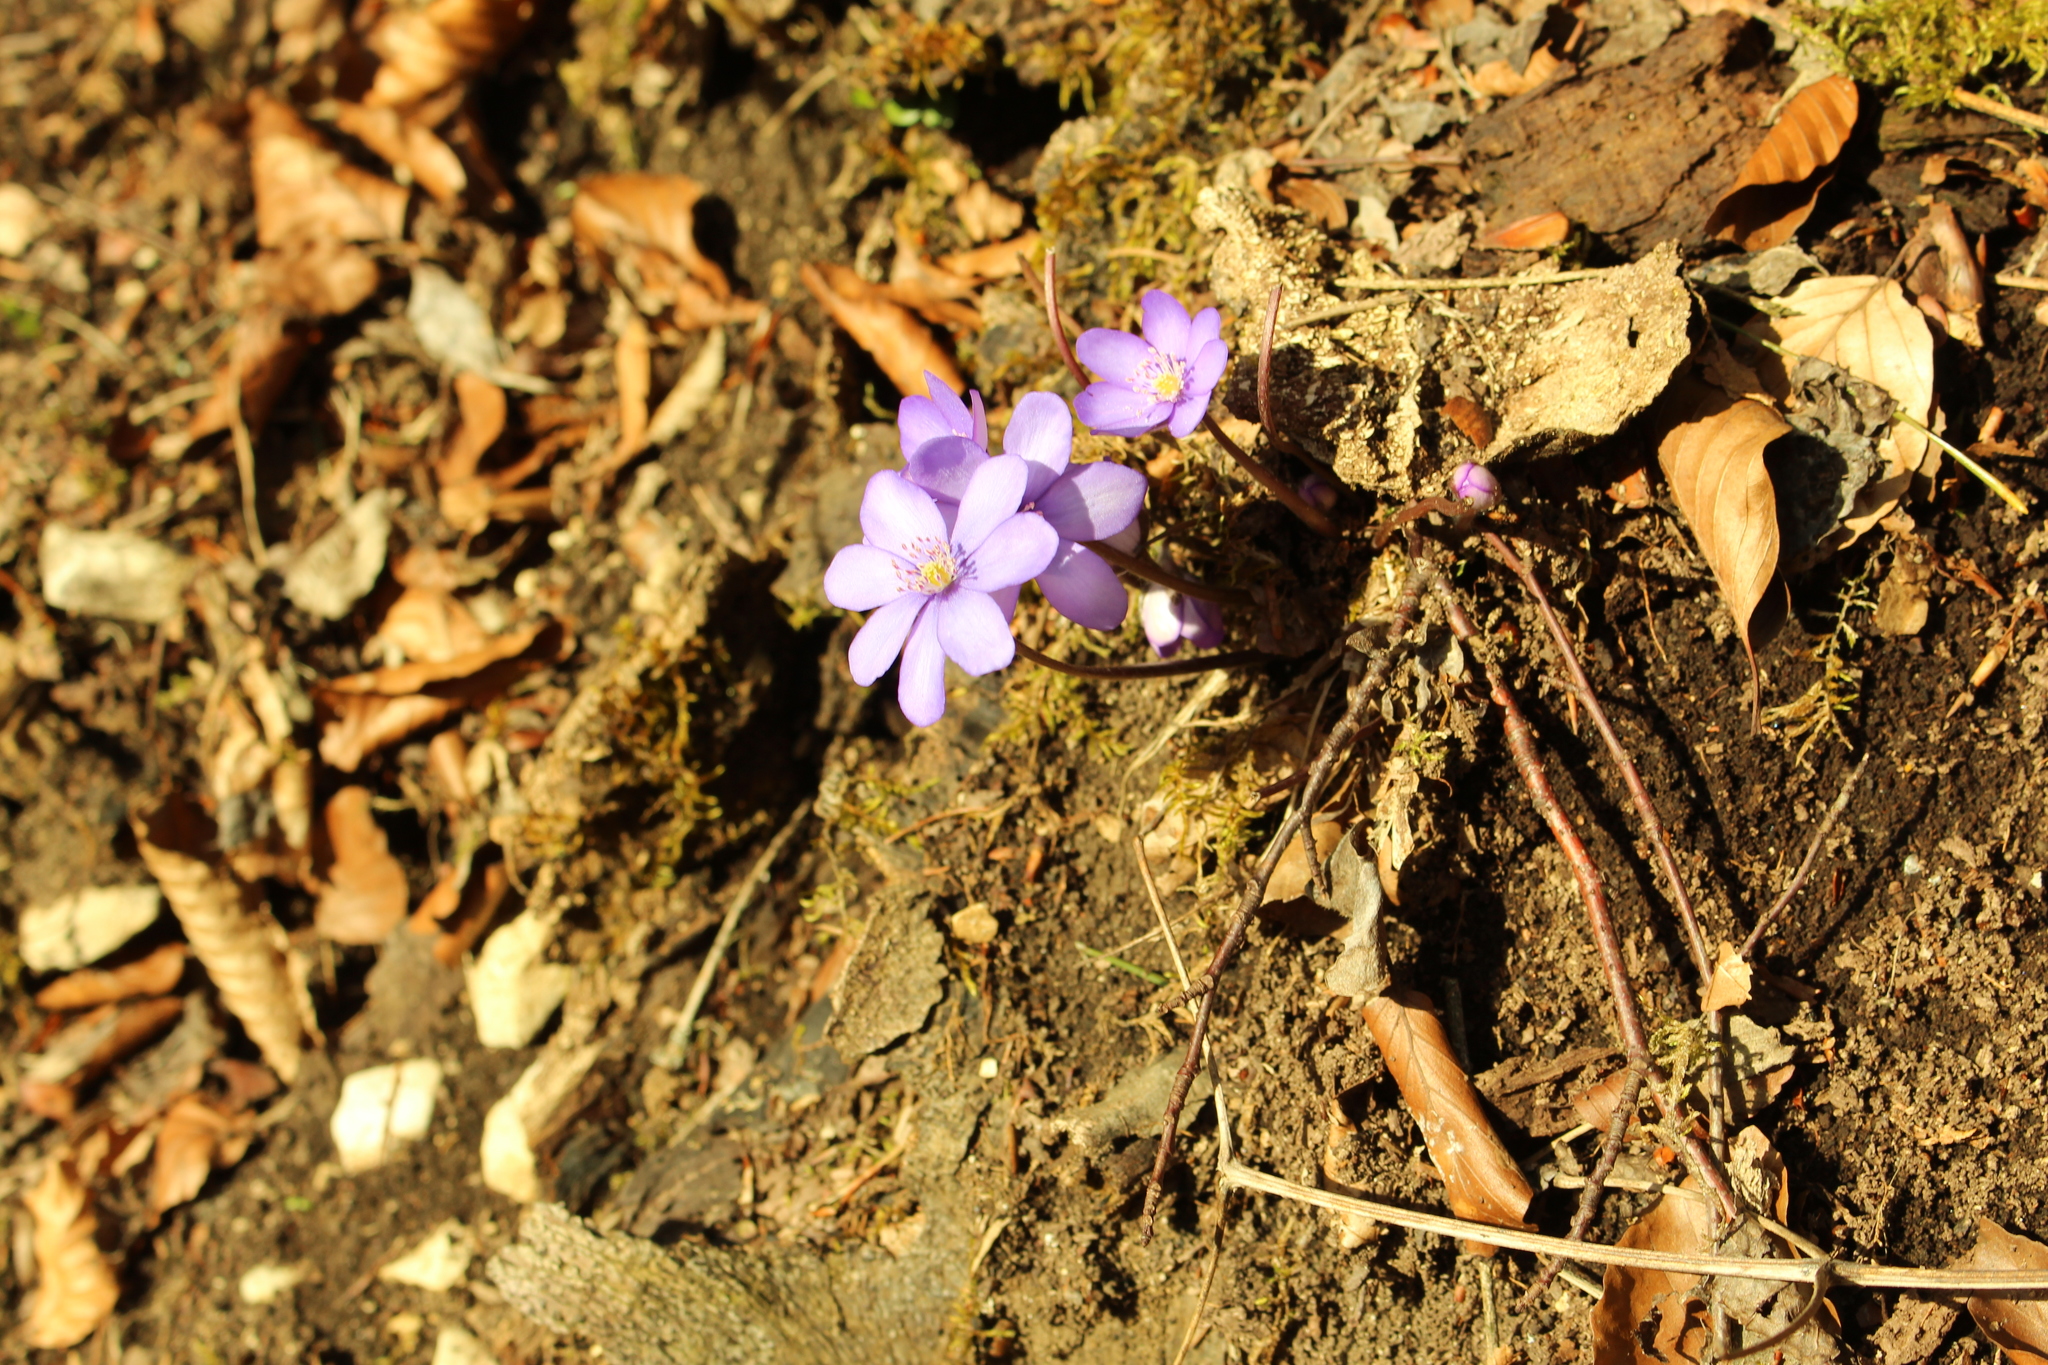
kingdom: Plantae
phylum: Tracheophyta
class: Magnoliopsida
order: Ranunculales
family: Ranunculaceae
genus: Hepatica
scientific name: Hepatica nobilis
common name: Liverleaf
